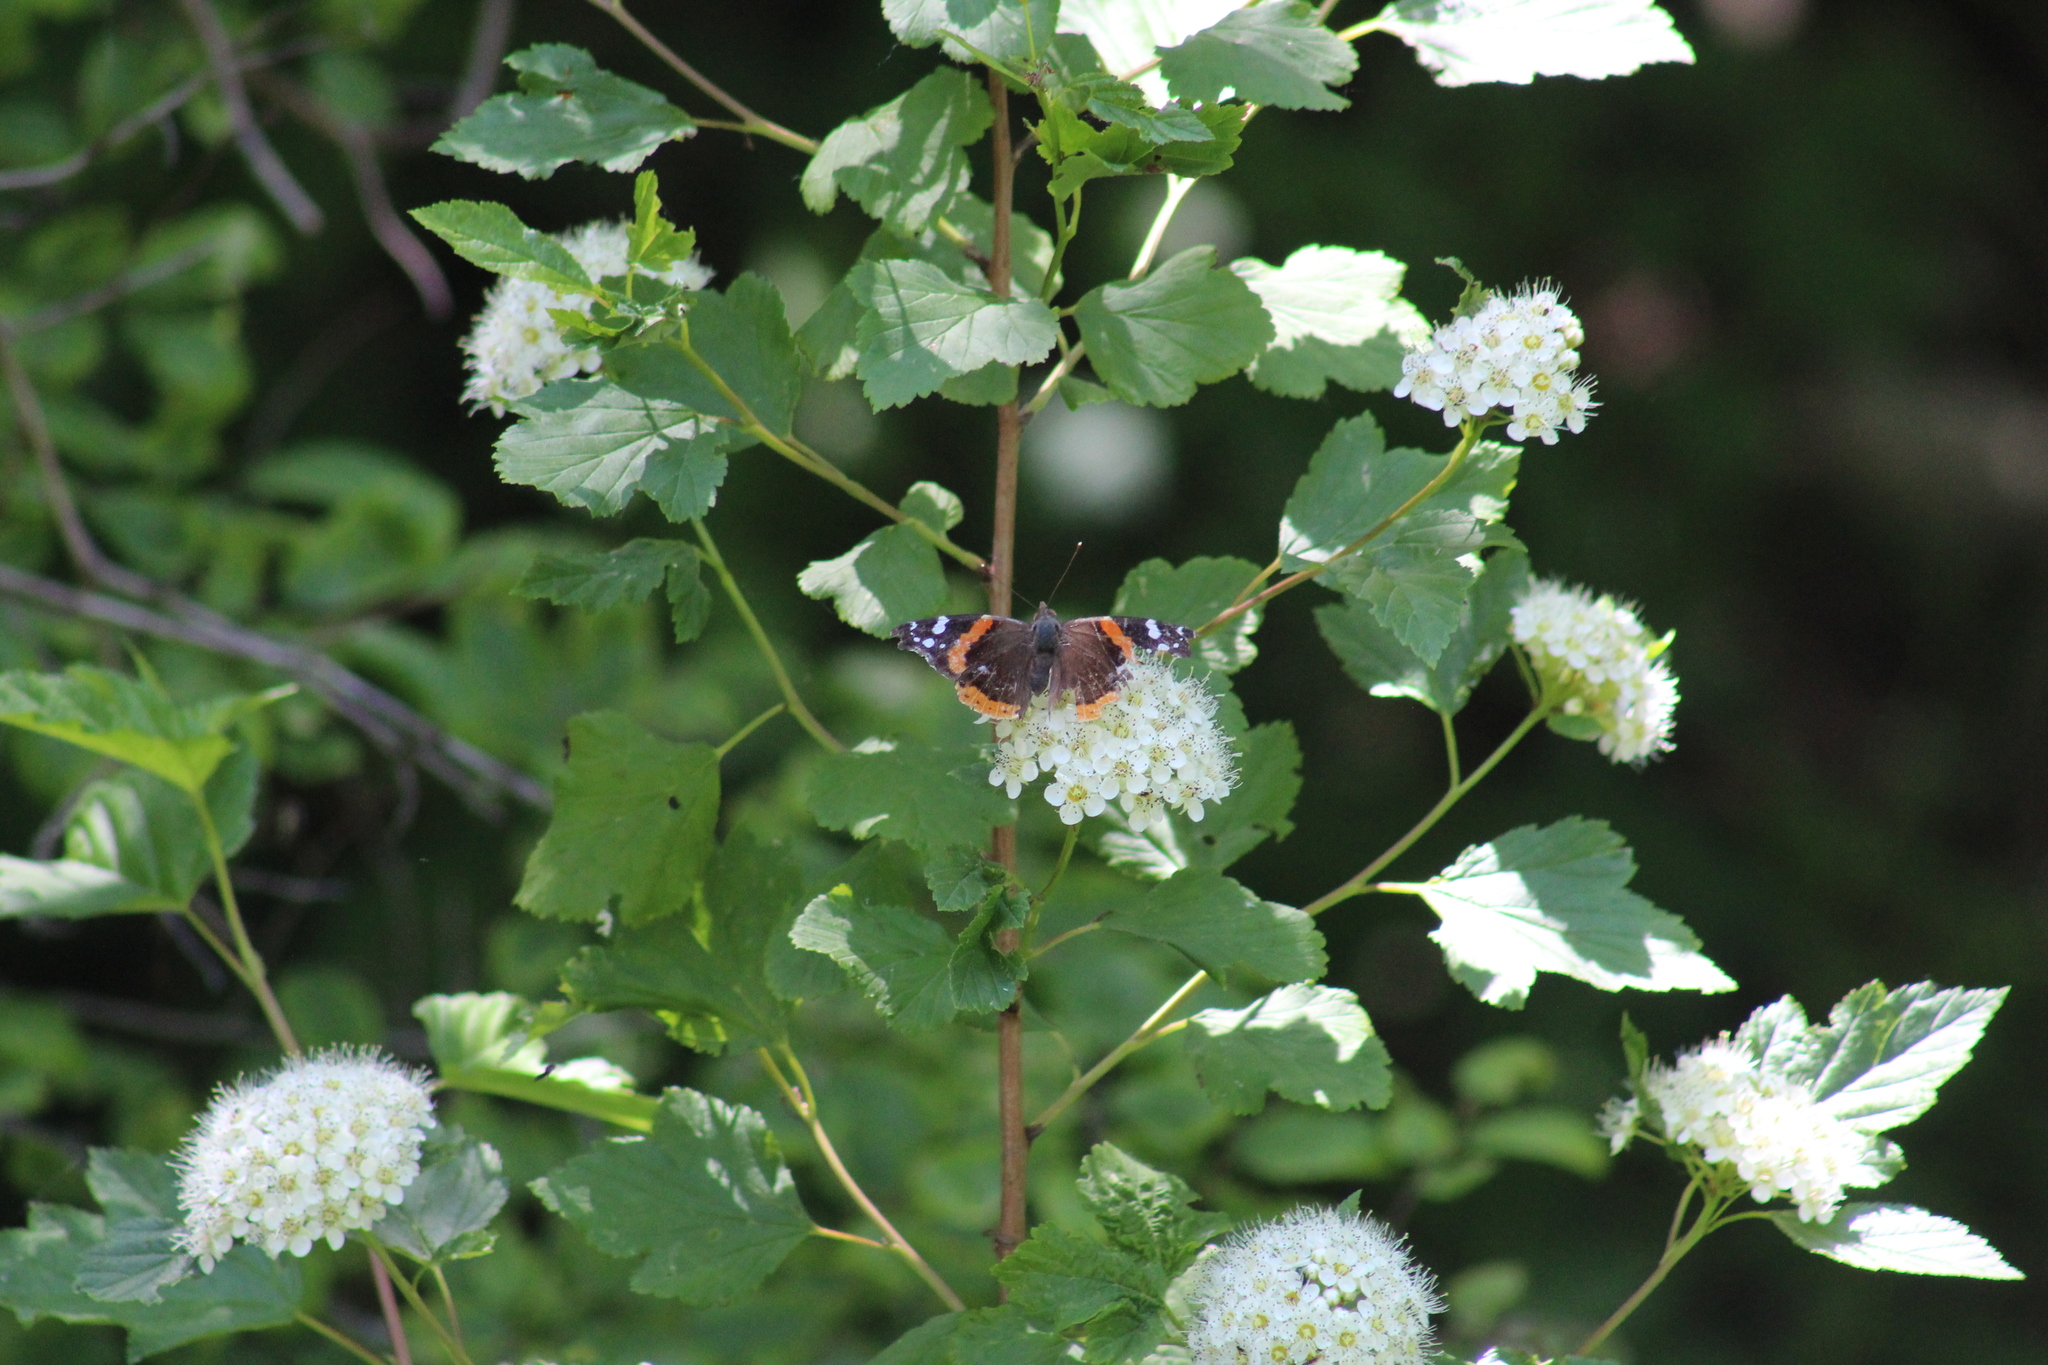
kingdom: Animalia
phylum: Arthropoda
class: Insecta
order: Lepidoptera
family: Nymphalidae
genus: Vanessa
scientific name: Vanessa atalanta
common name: Red admiral
